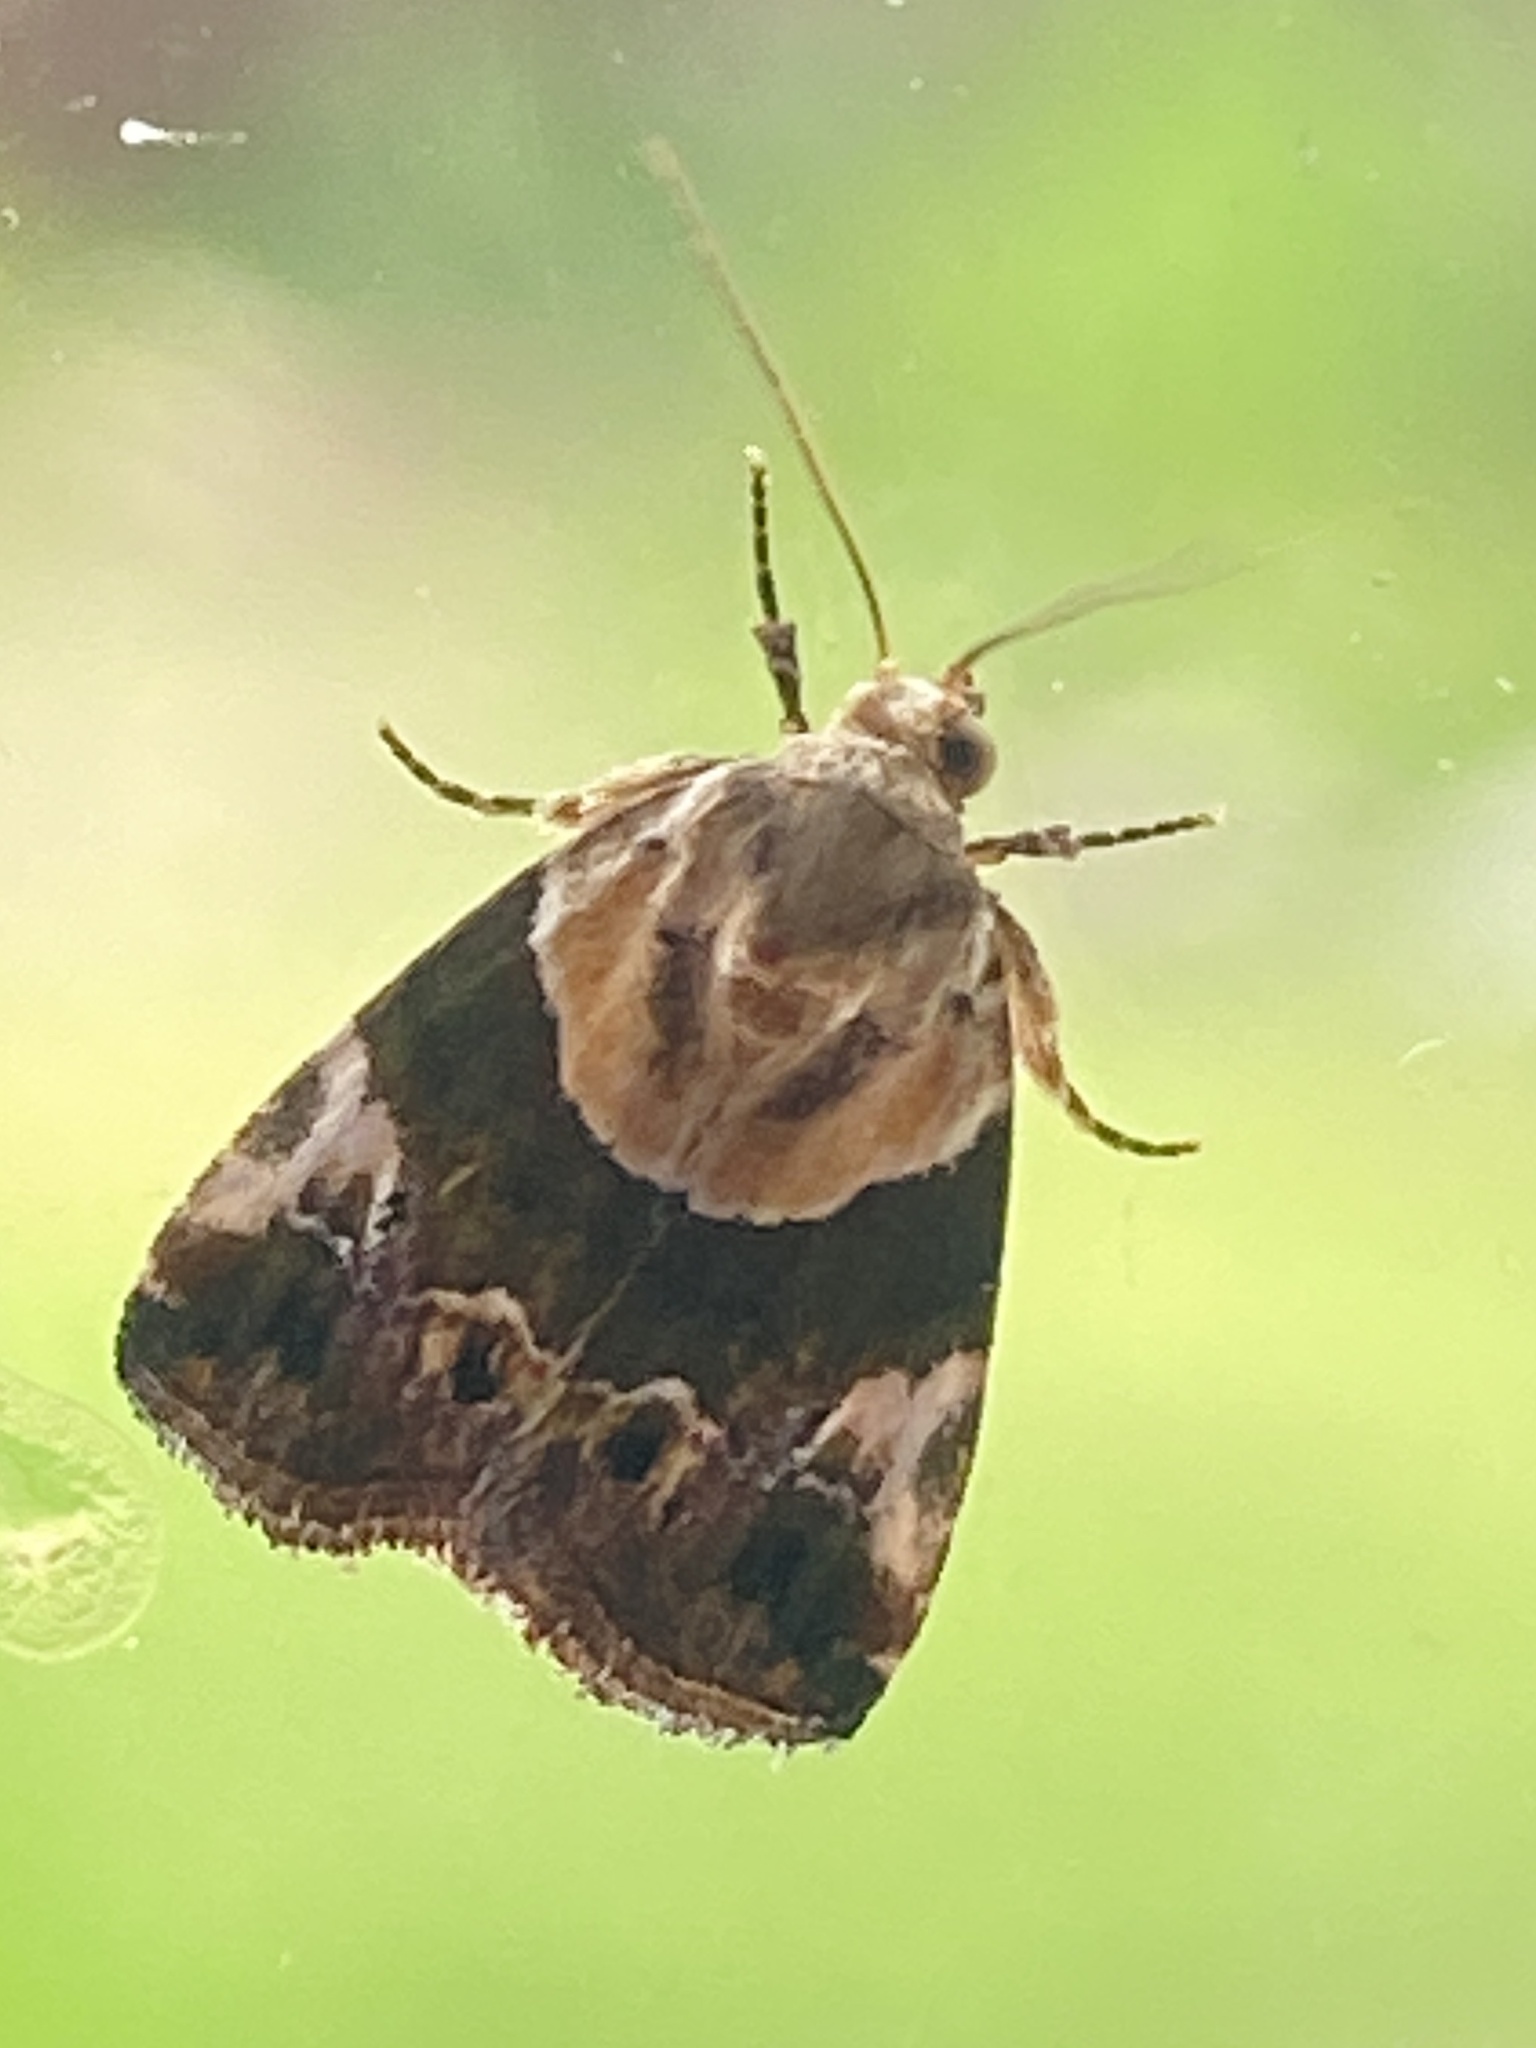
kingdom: Animalia
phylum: Arthropoda
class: Insecta
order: Lepidoptera
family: Noctuidae
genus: Hypercodia
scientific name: Hypercodia wheeleri
